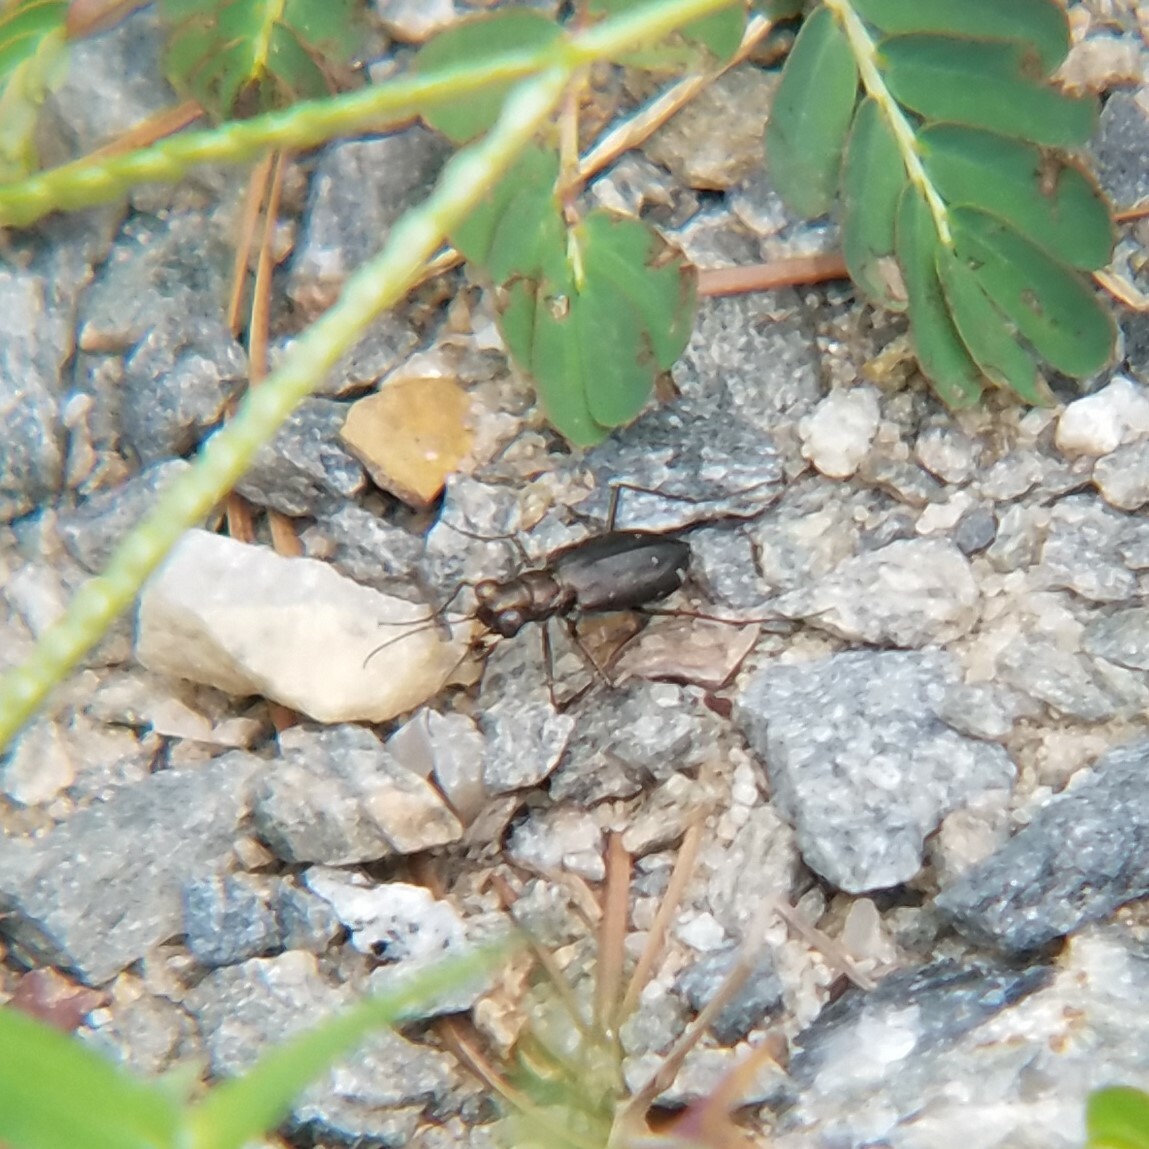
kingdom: Animalia
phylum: Arthropoda
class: Insecta
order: Coleoptera
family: Carabidae
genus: Cicindela
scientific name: Cicindela punctulata
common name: Punctured tiger beetle
